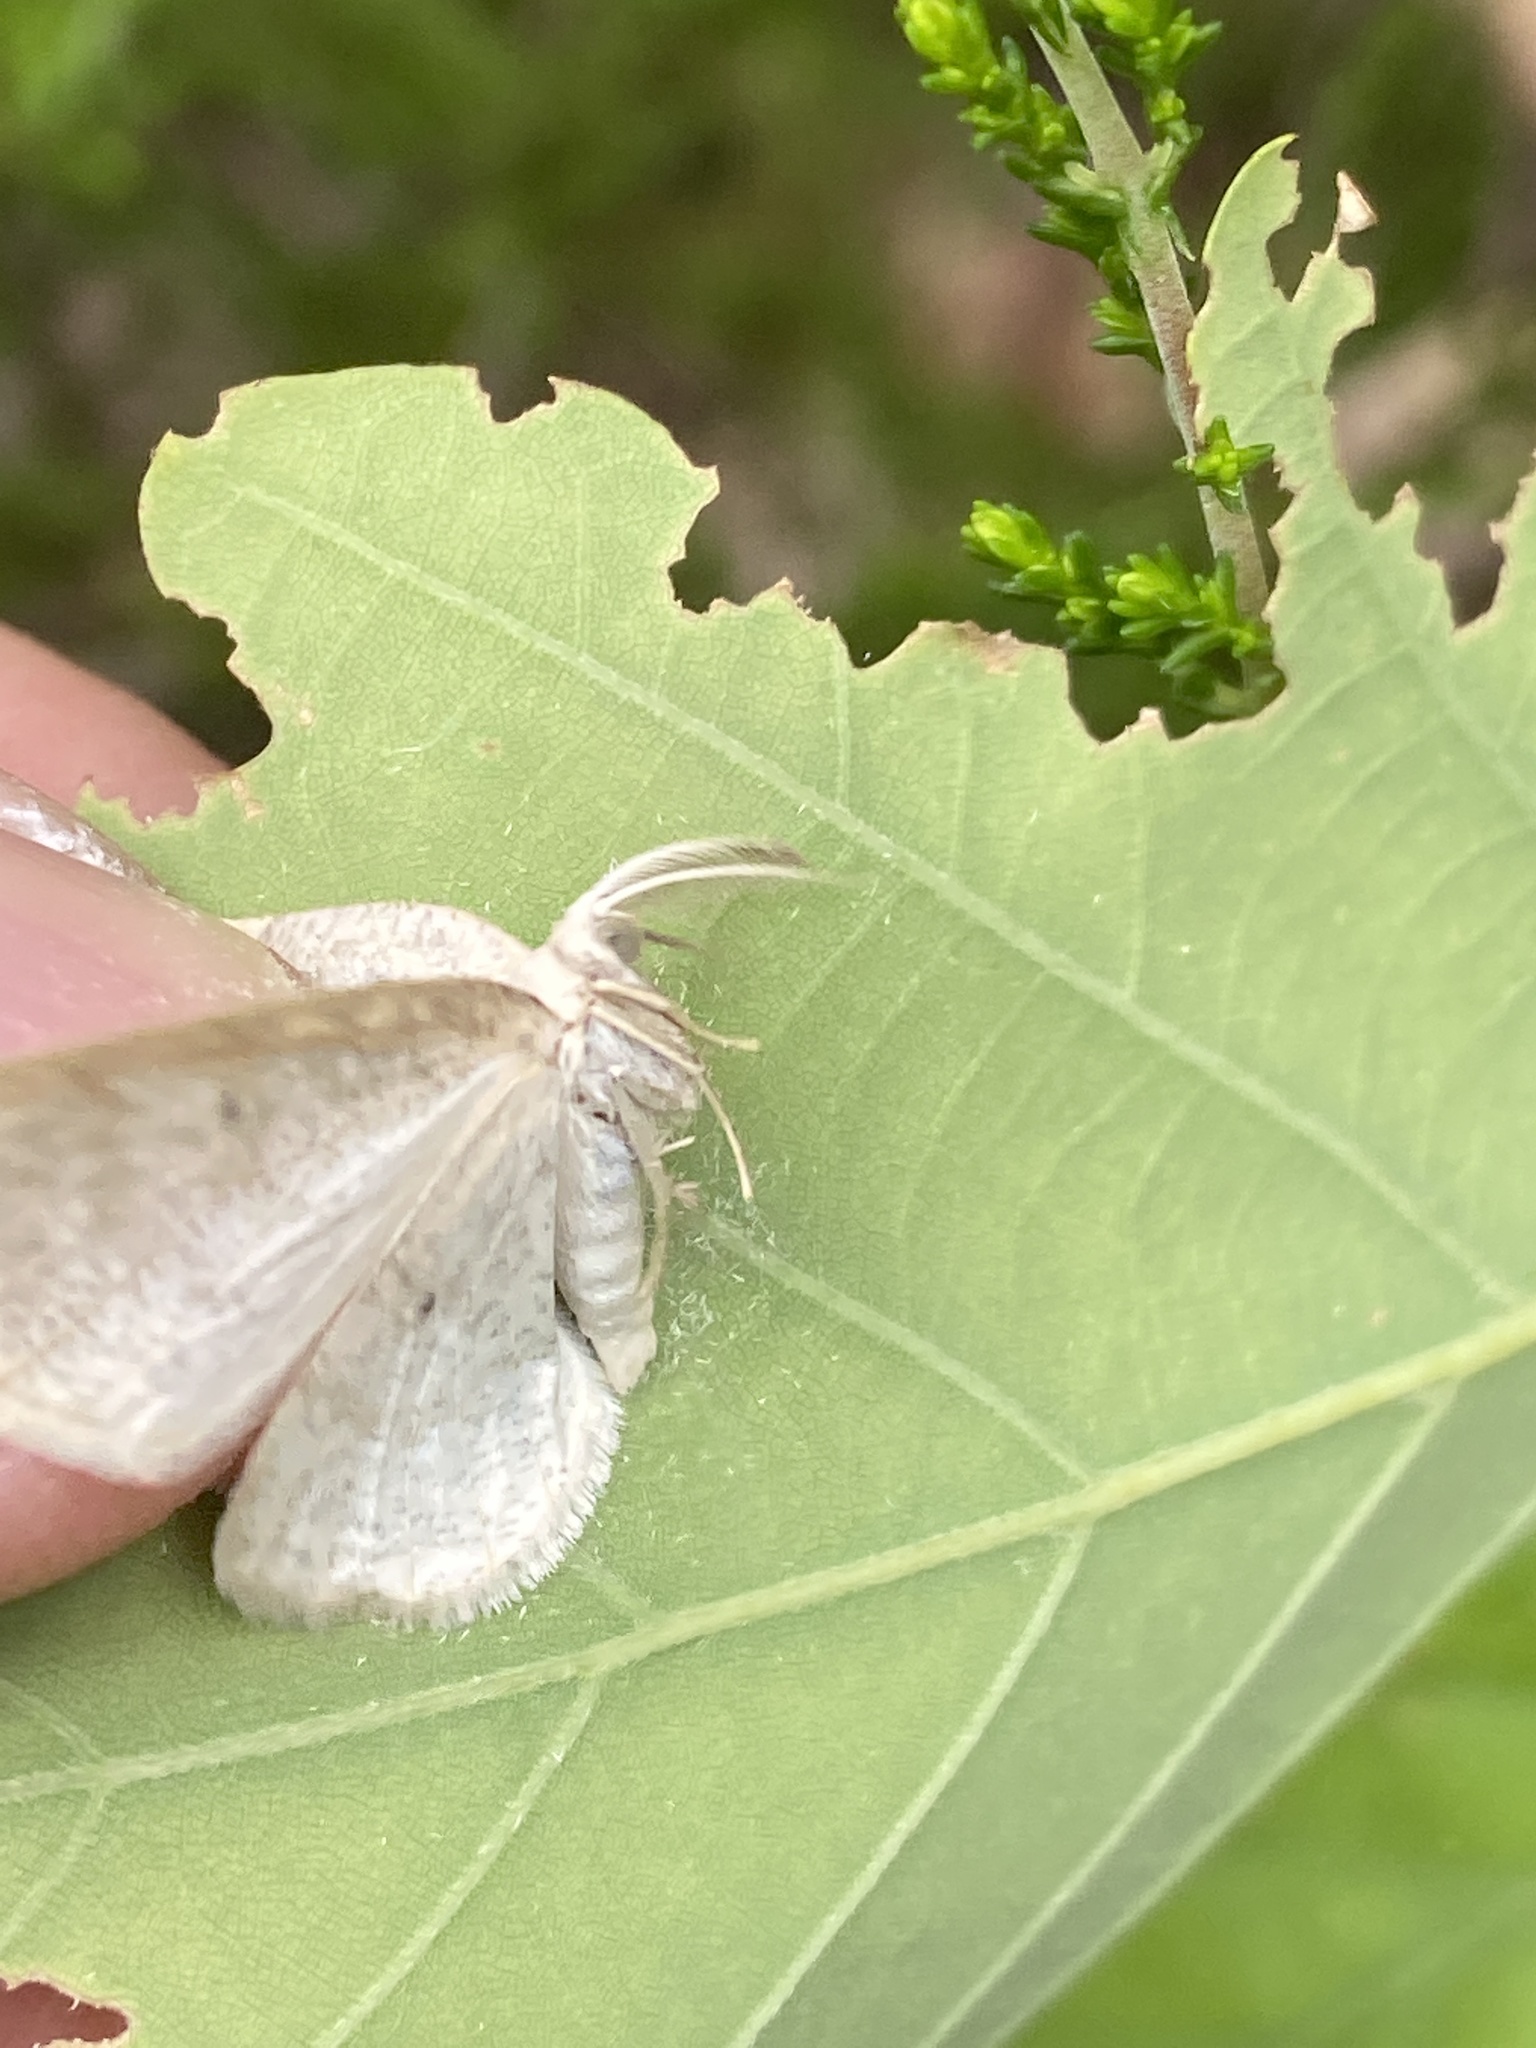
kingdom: Animalia
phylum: Arthropoda
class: Insecta
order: Lepidoptera
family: Geometridae
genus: Cabera
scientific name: Cabera exanthemata
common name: Common wave
